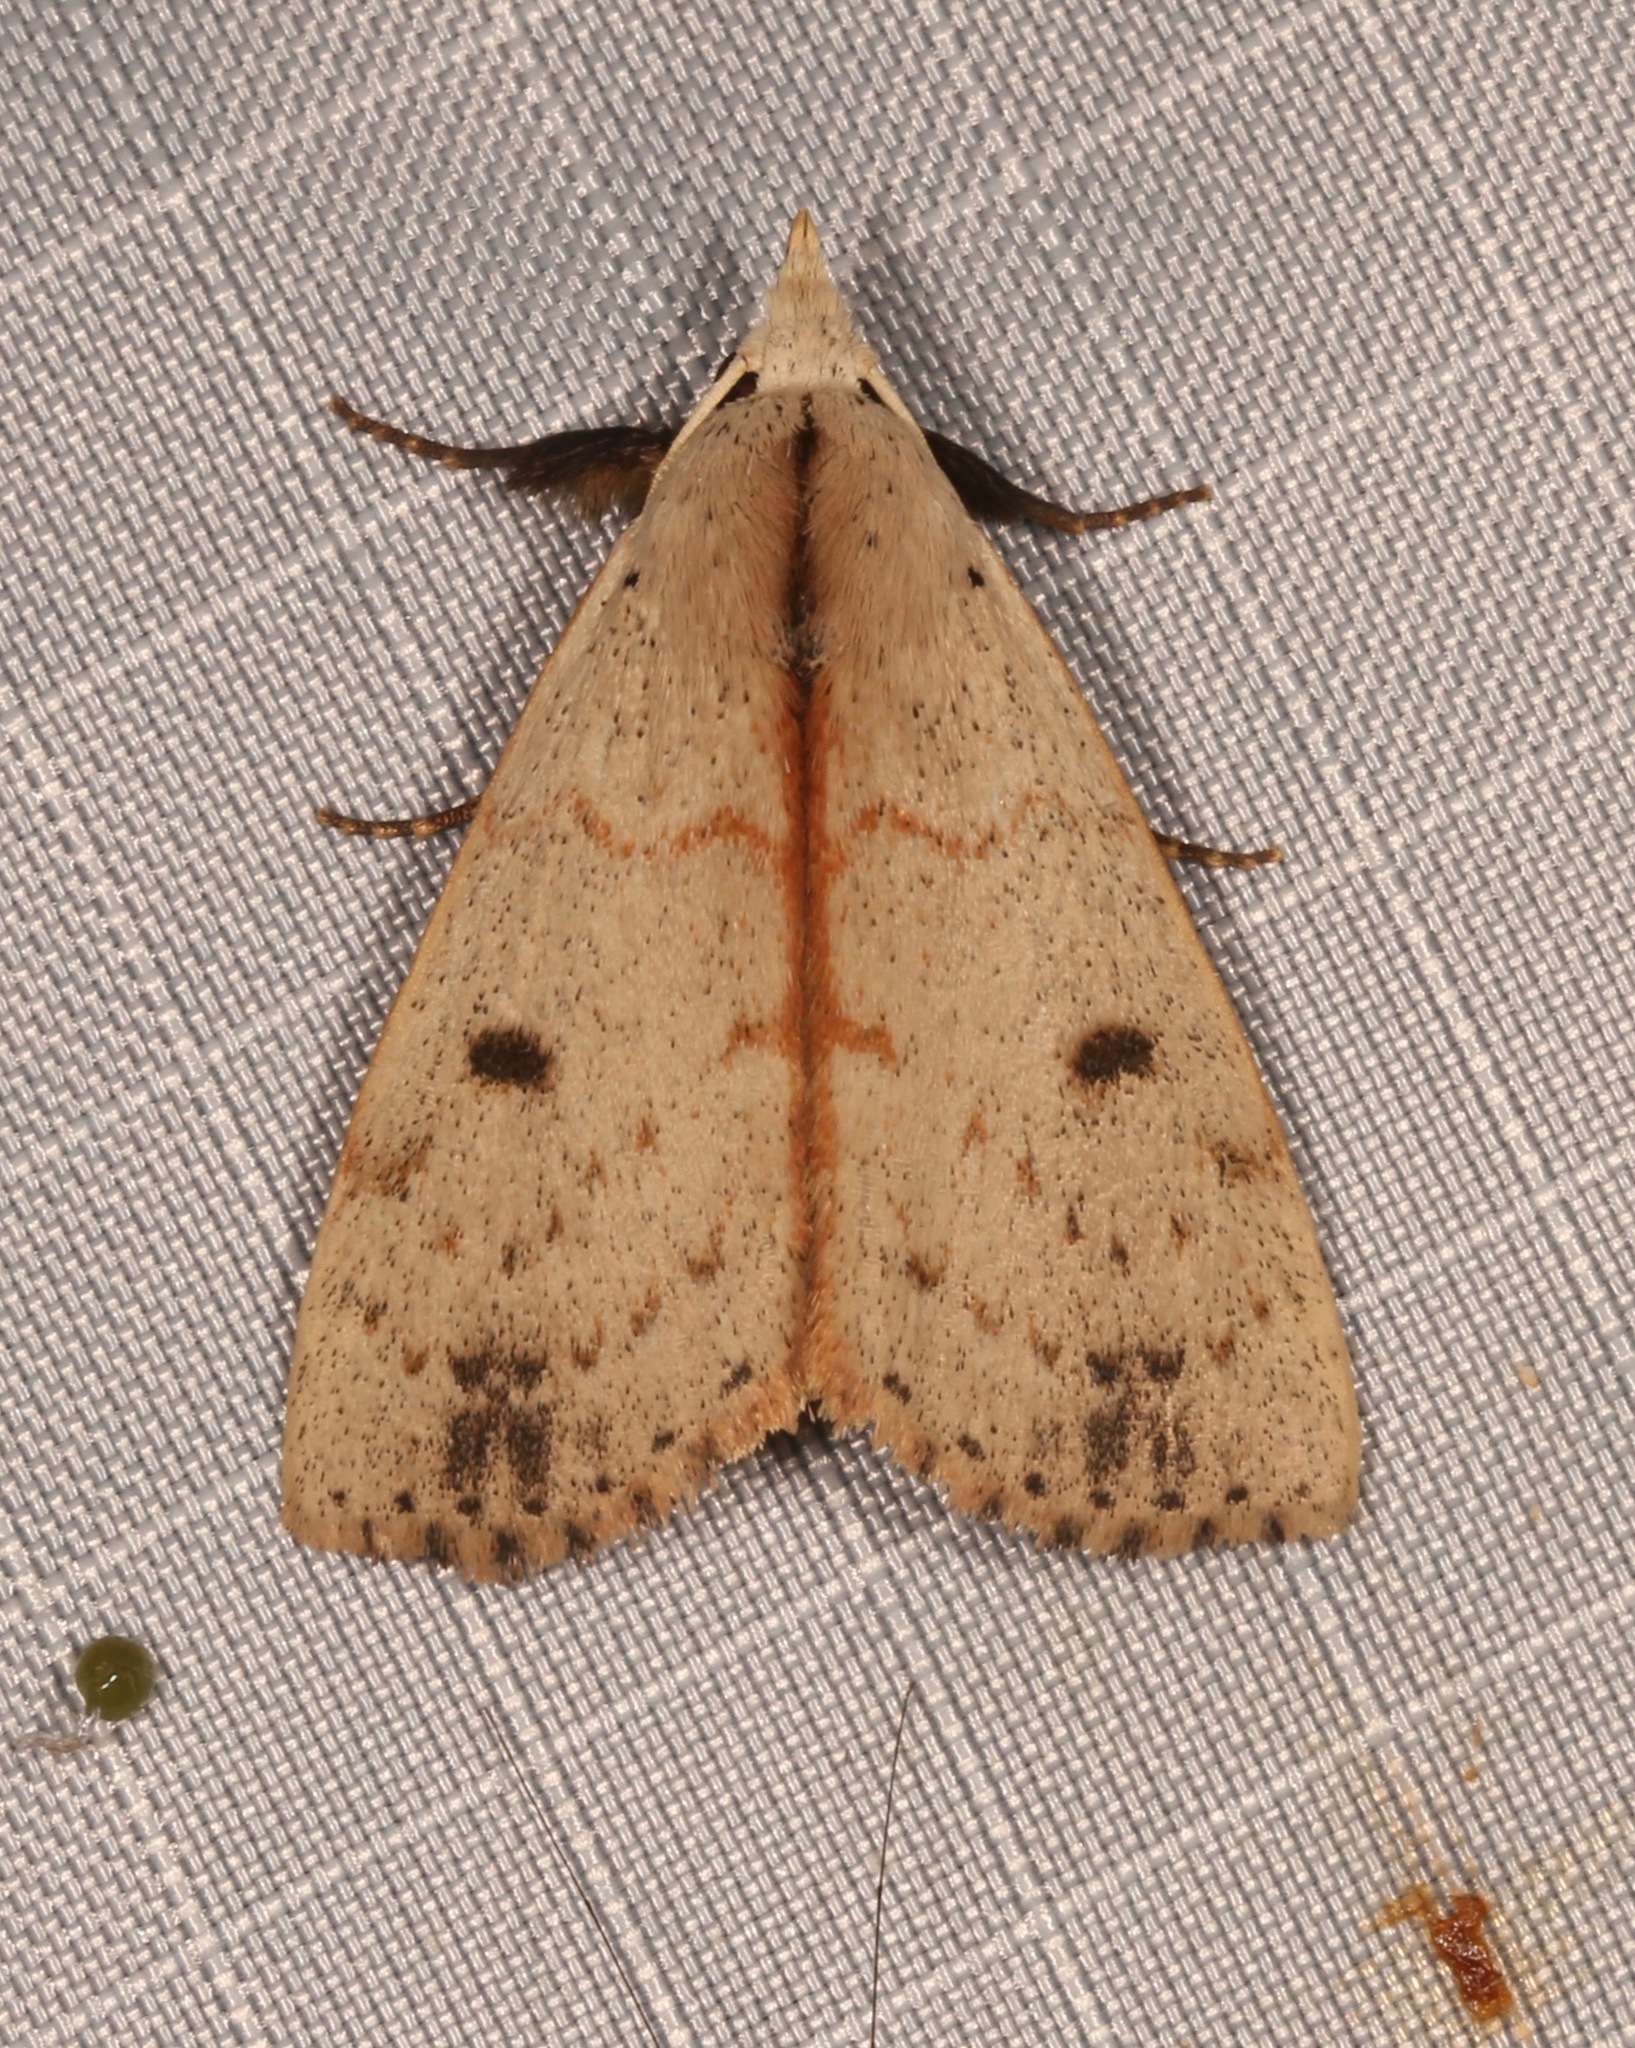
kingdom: Animalia
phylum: Arthropoda
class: Insecta
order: Lepidoptera
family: Erebidae
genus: Scolecocampa
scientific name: Scolecocampa liburna
